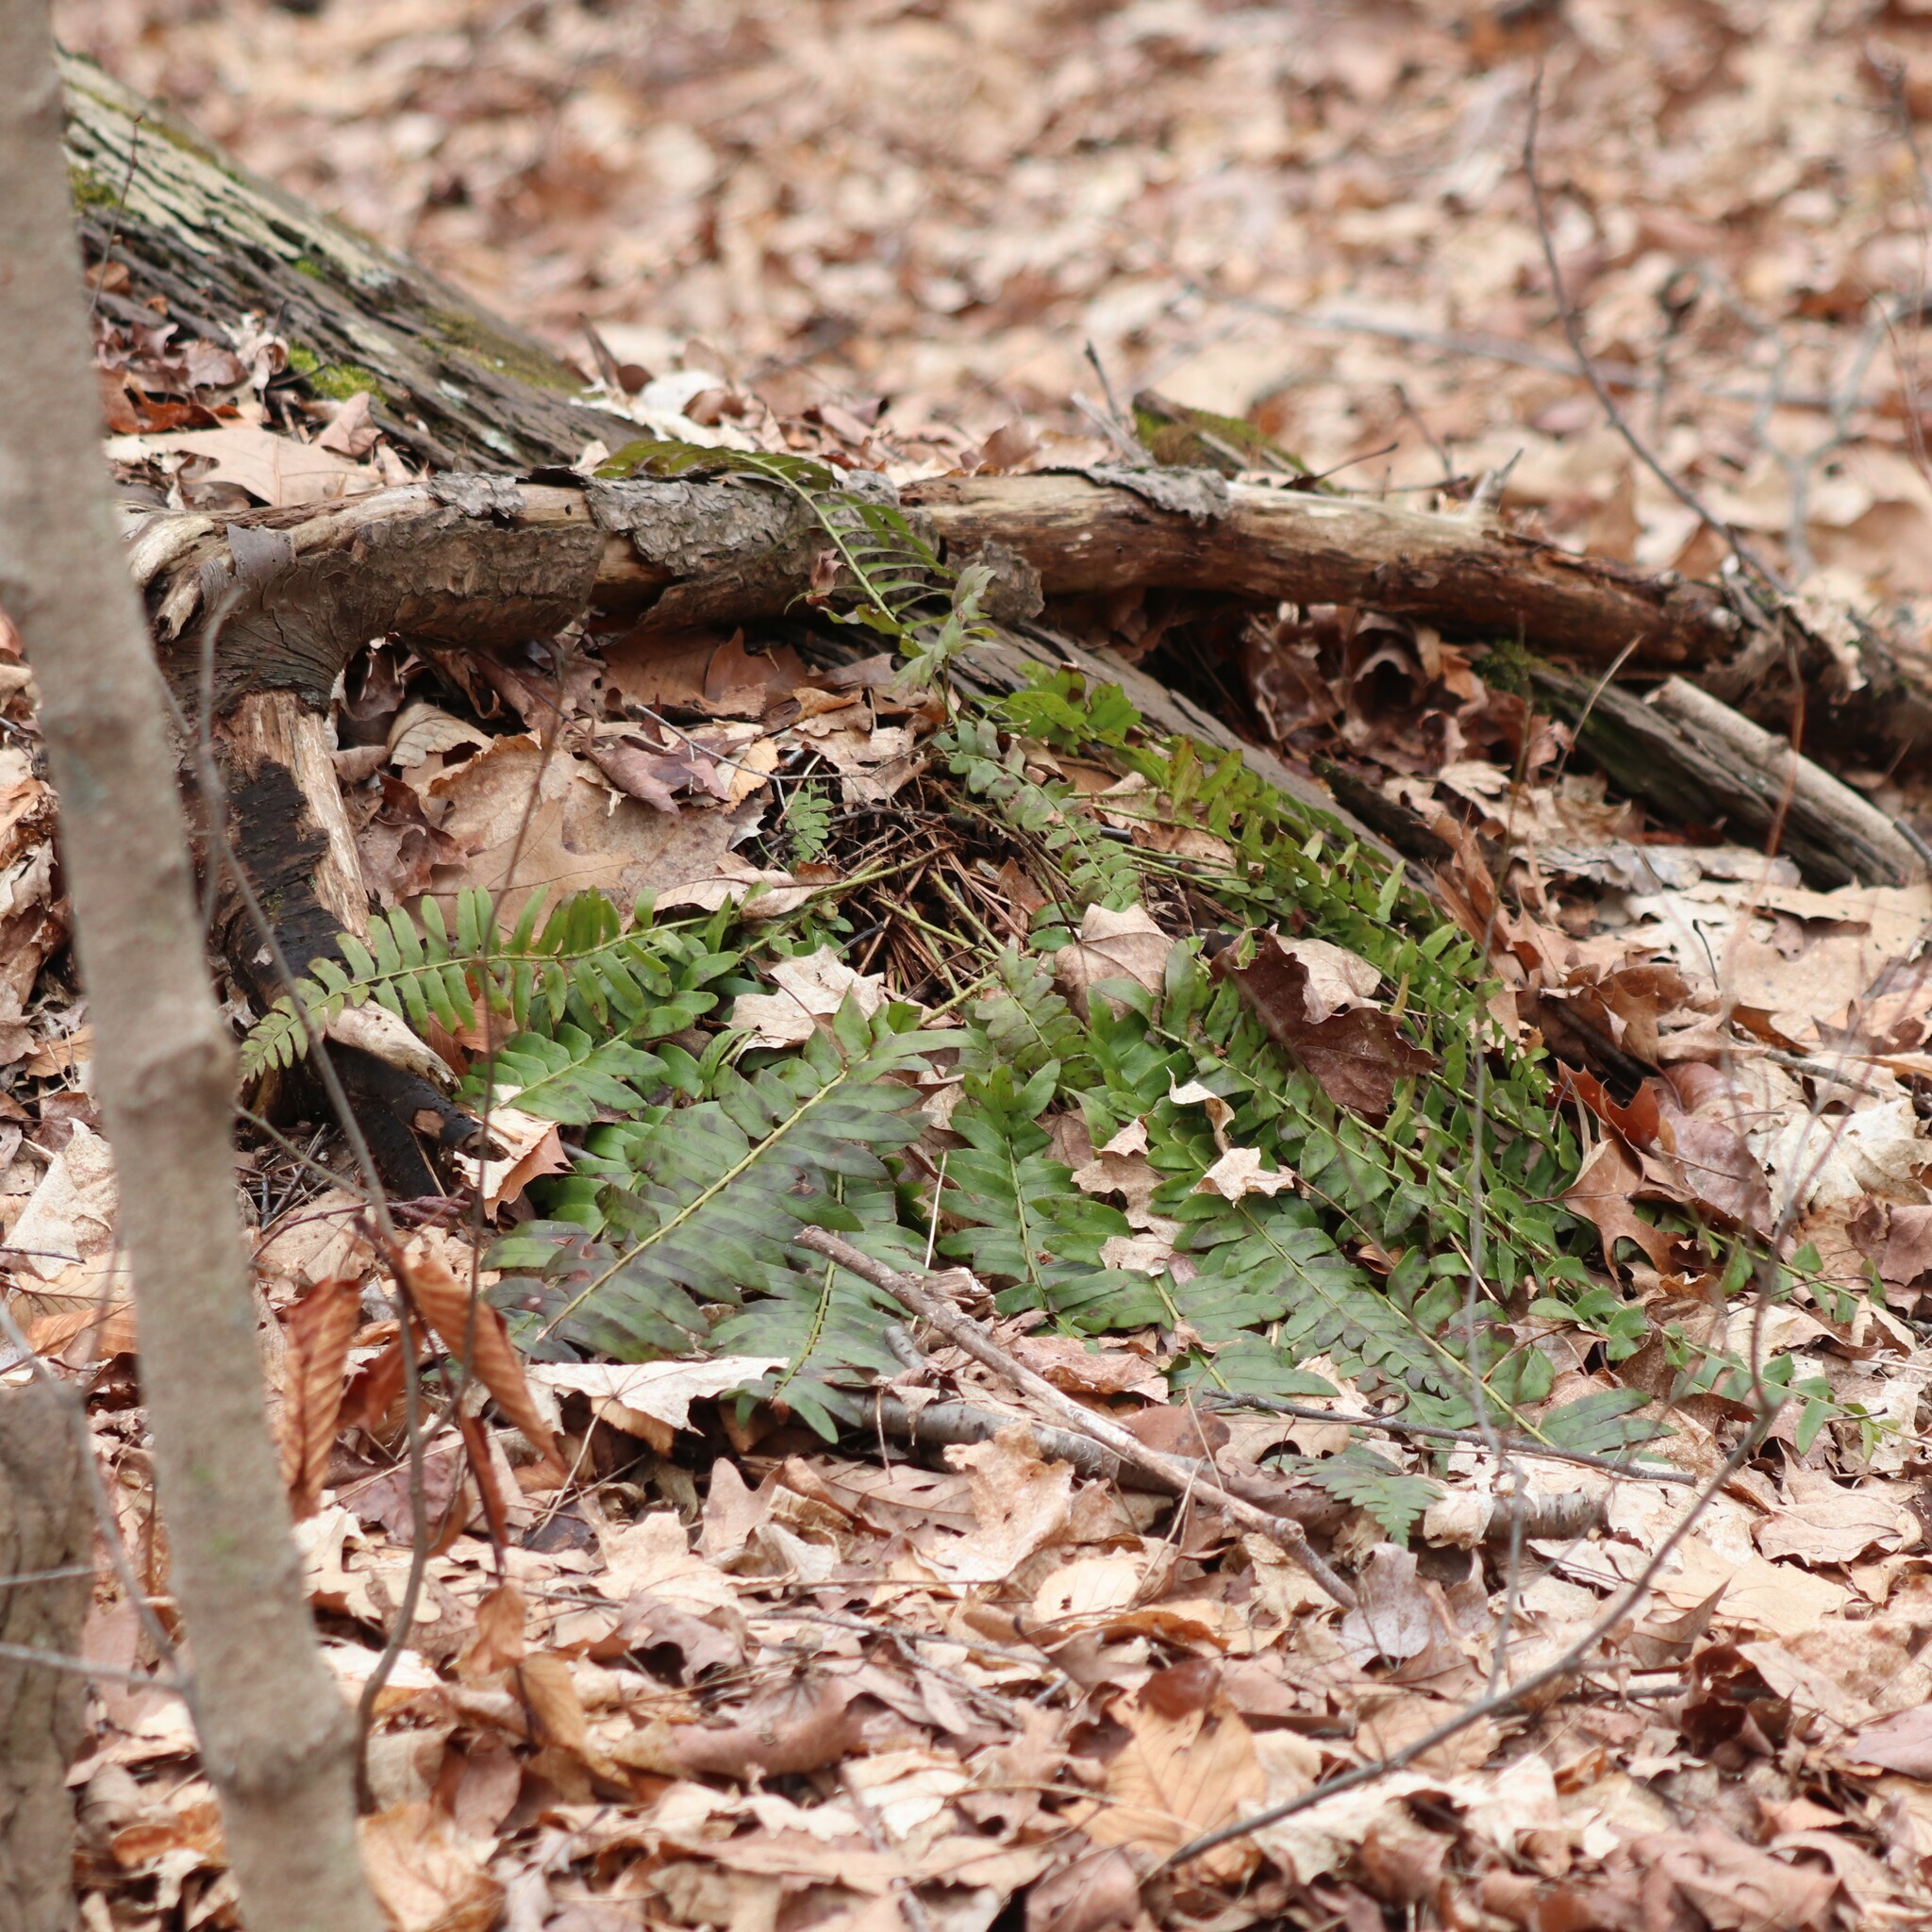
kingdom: Plantae
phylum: Tracheophyta
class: Polypodiopsida
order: Polypodiales
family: Dryopteridaceae
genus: Polystichum
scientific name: Polystichum acrostichoides
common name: Christmas fern
